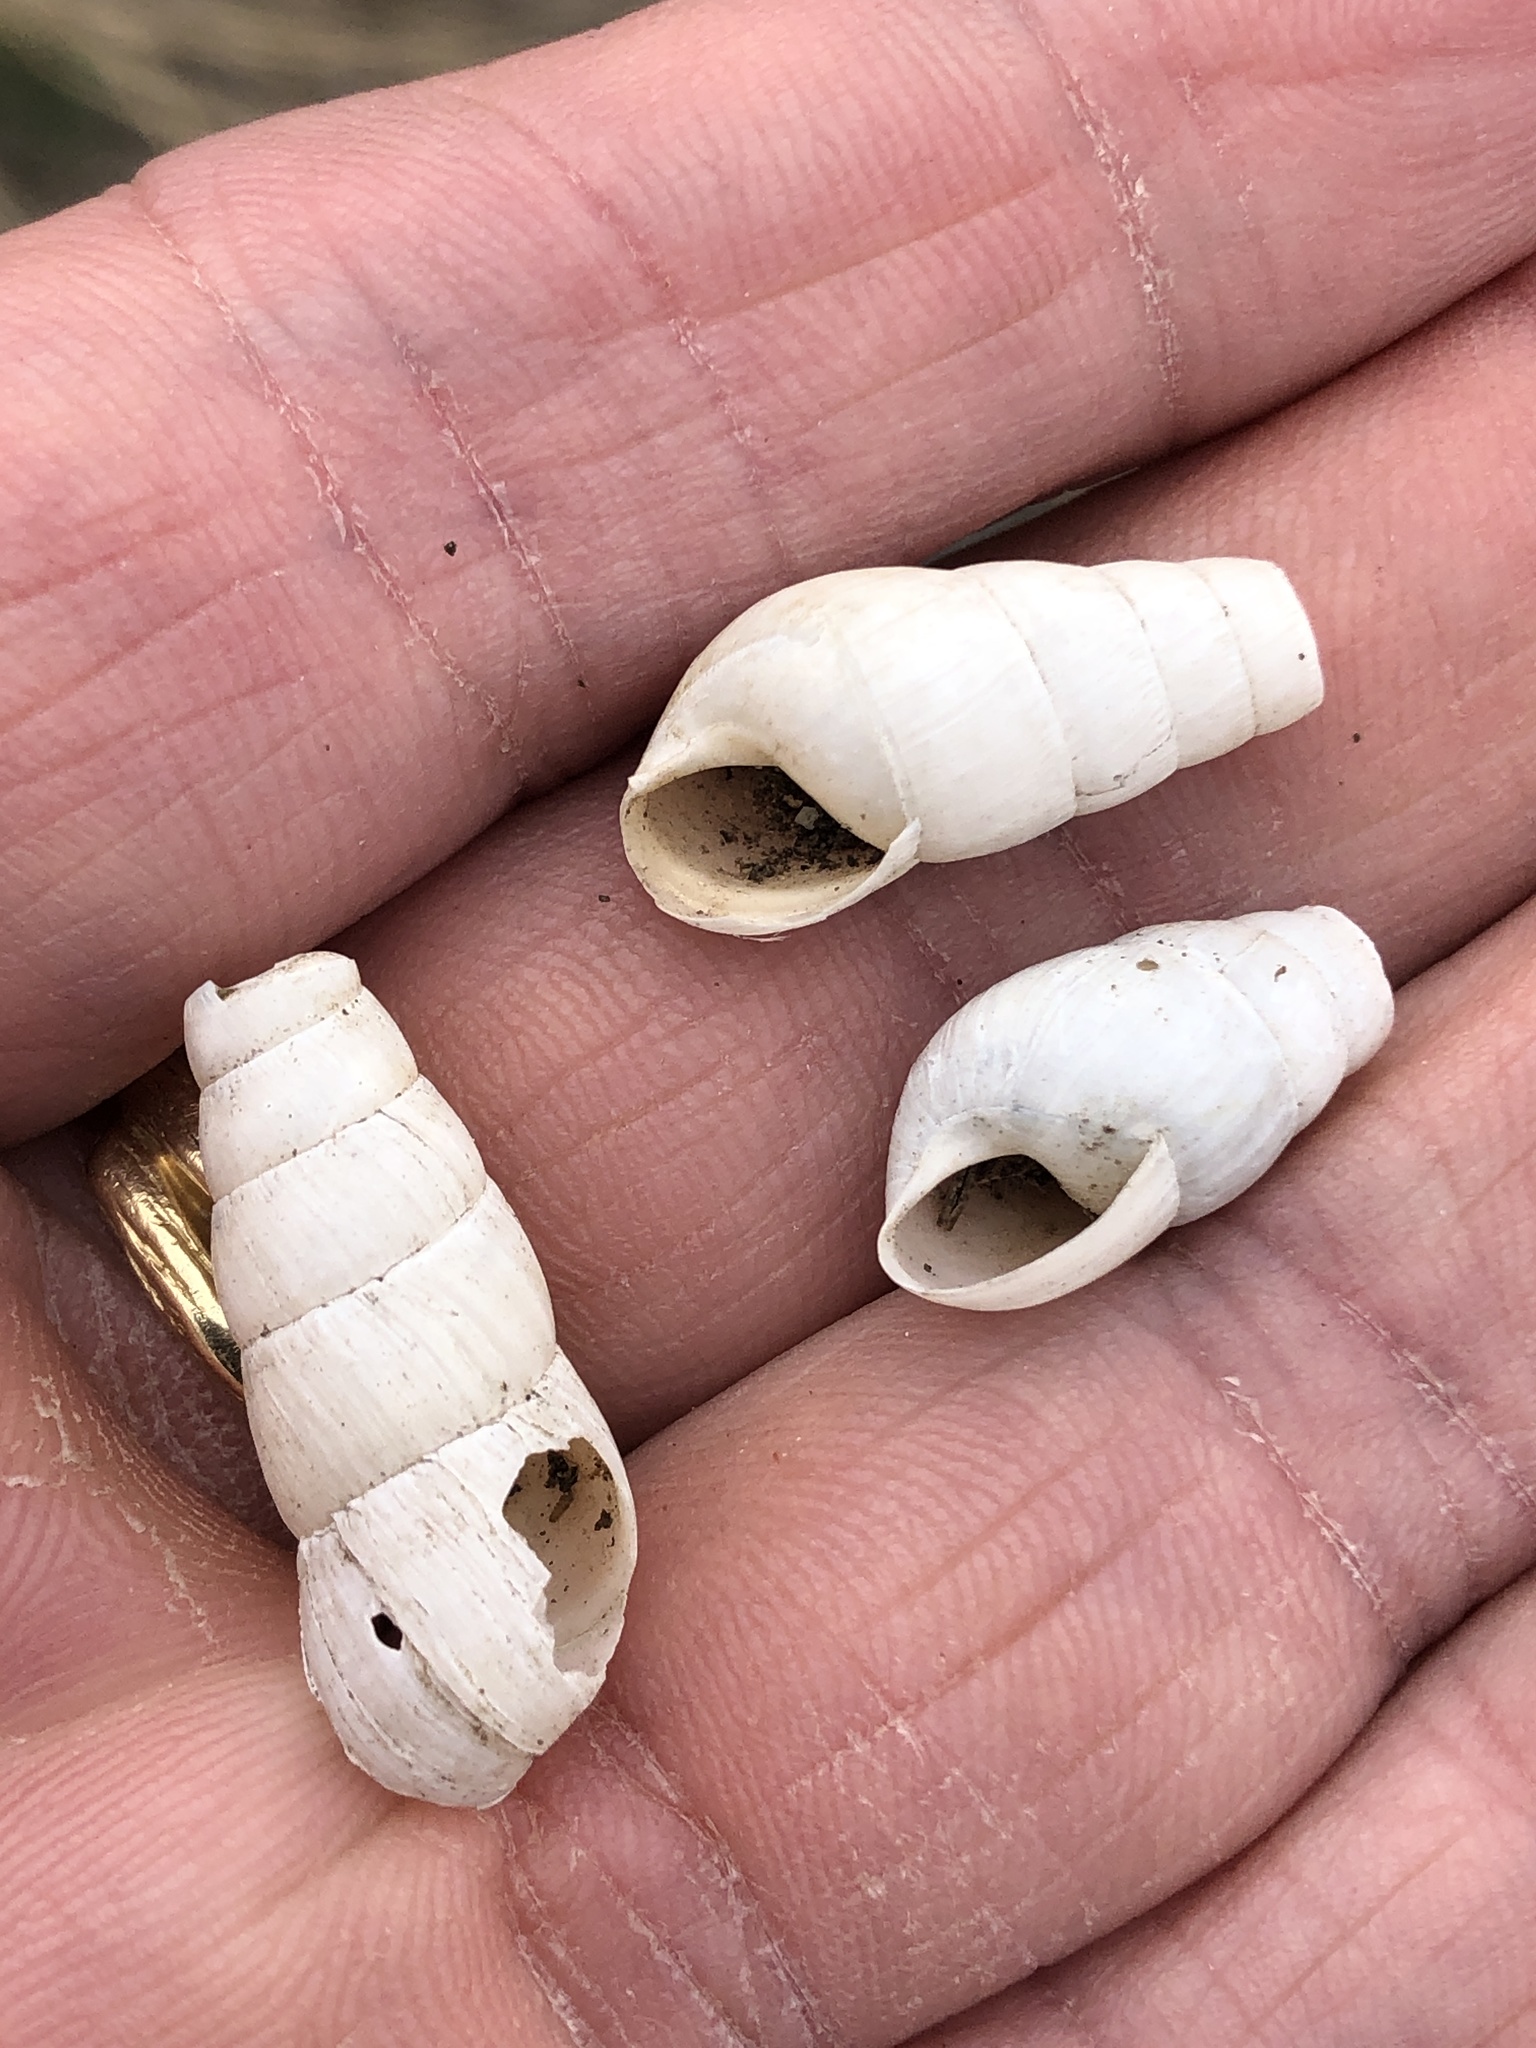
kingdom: Animalia
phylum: Mollusca
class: Gastropoda
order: Stylommatophora
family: Achatinidae
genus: Rumina
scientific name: Rumina decollata
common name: Decollate snail
